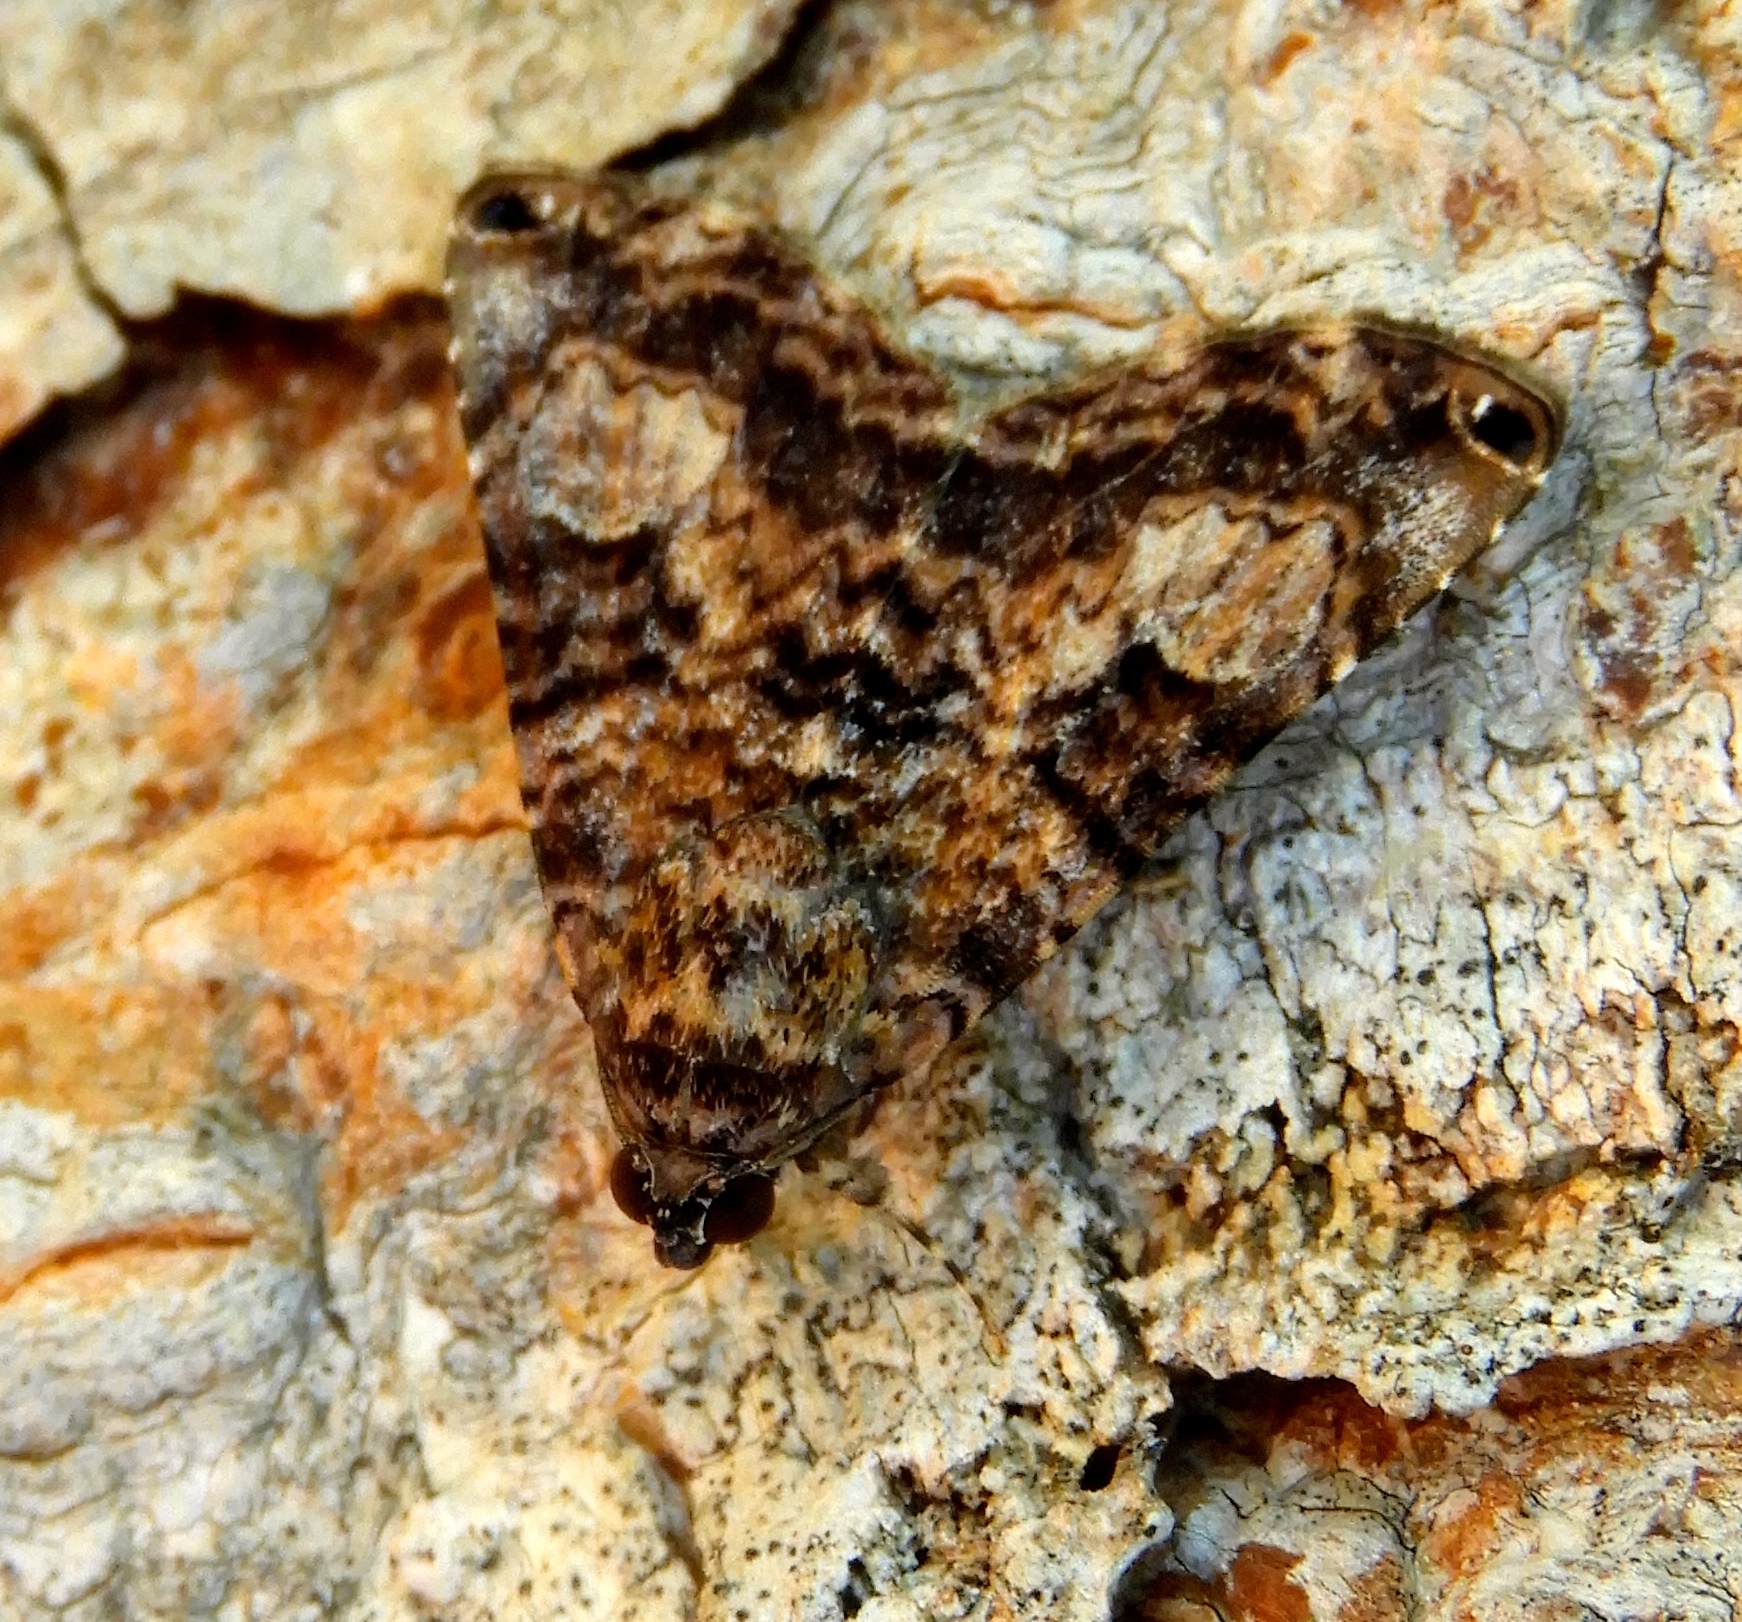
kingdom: Animalia
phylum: Arthropoda
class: Insecta
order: Lepidoptera
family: Erebidae
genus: Acolasis
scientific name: Acolasis
